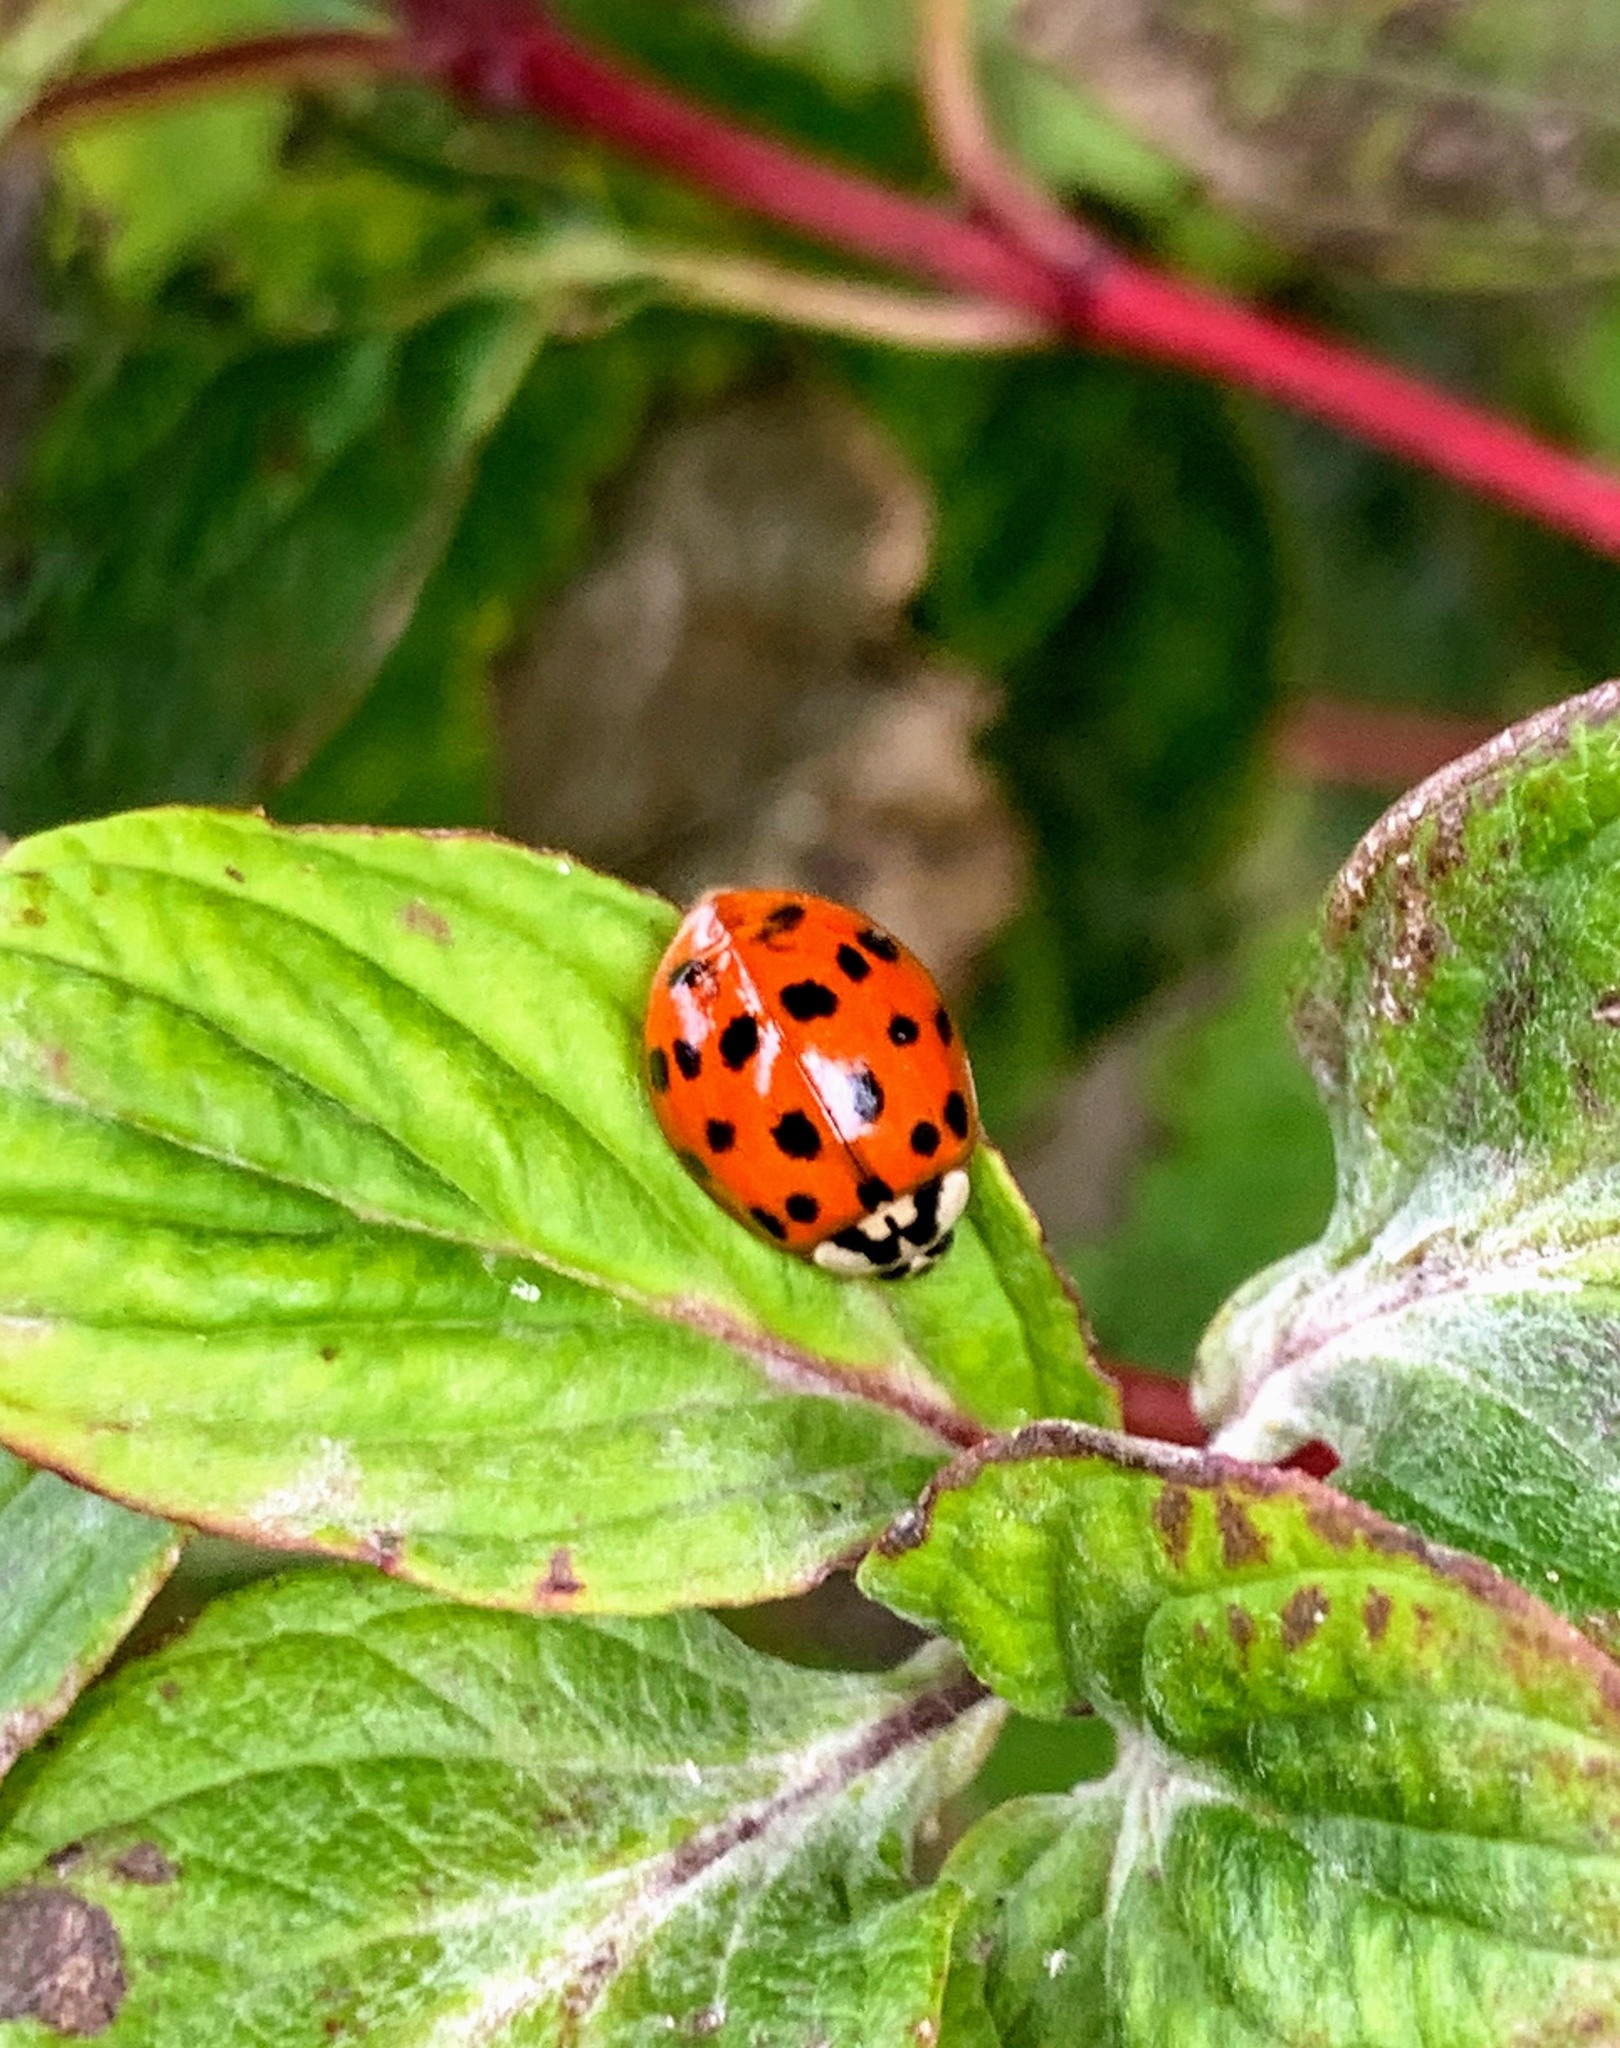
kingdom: Animalia
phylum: Arthropoda
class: Insecta
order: Coleoptera
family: Coccinellidae
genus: Harmonia
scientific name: Harmonia axyridis
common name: Harlequin ladybird
